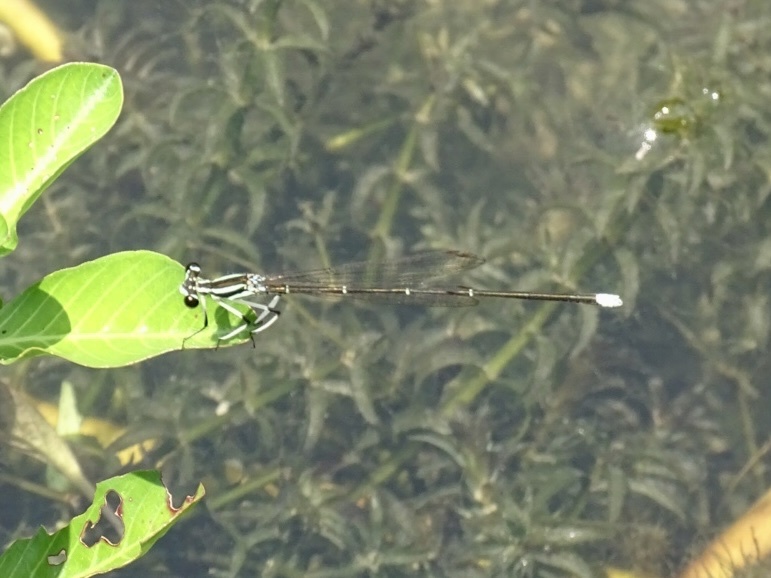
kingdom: Animalia
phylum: Arthropoda
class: Insecta
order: Odonata
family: Platycnemididae
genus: Pseudocopera
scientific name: Pseudocopera ciliata
